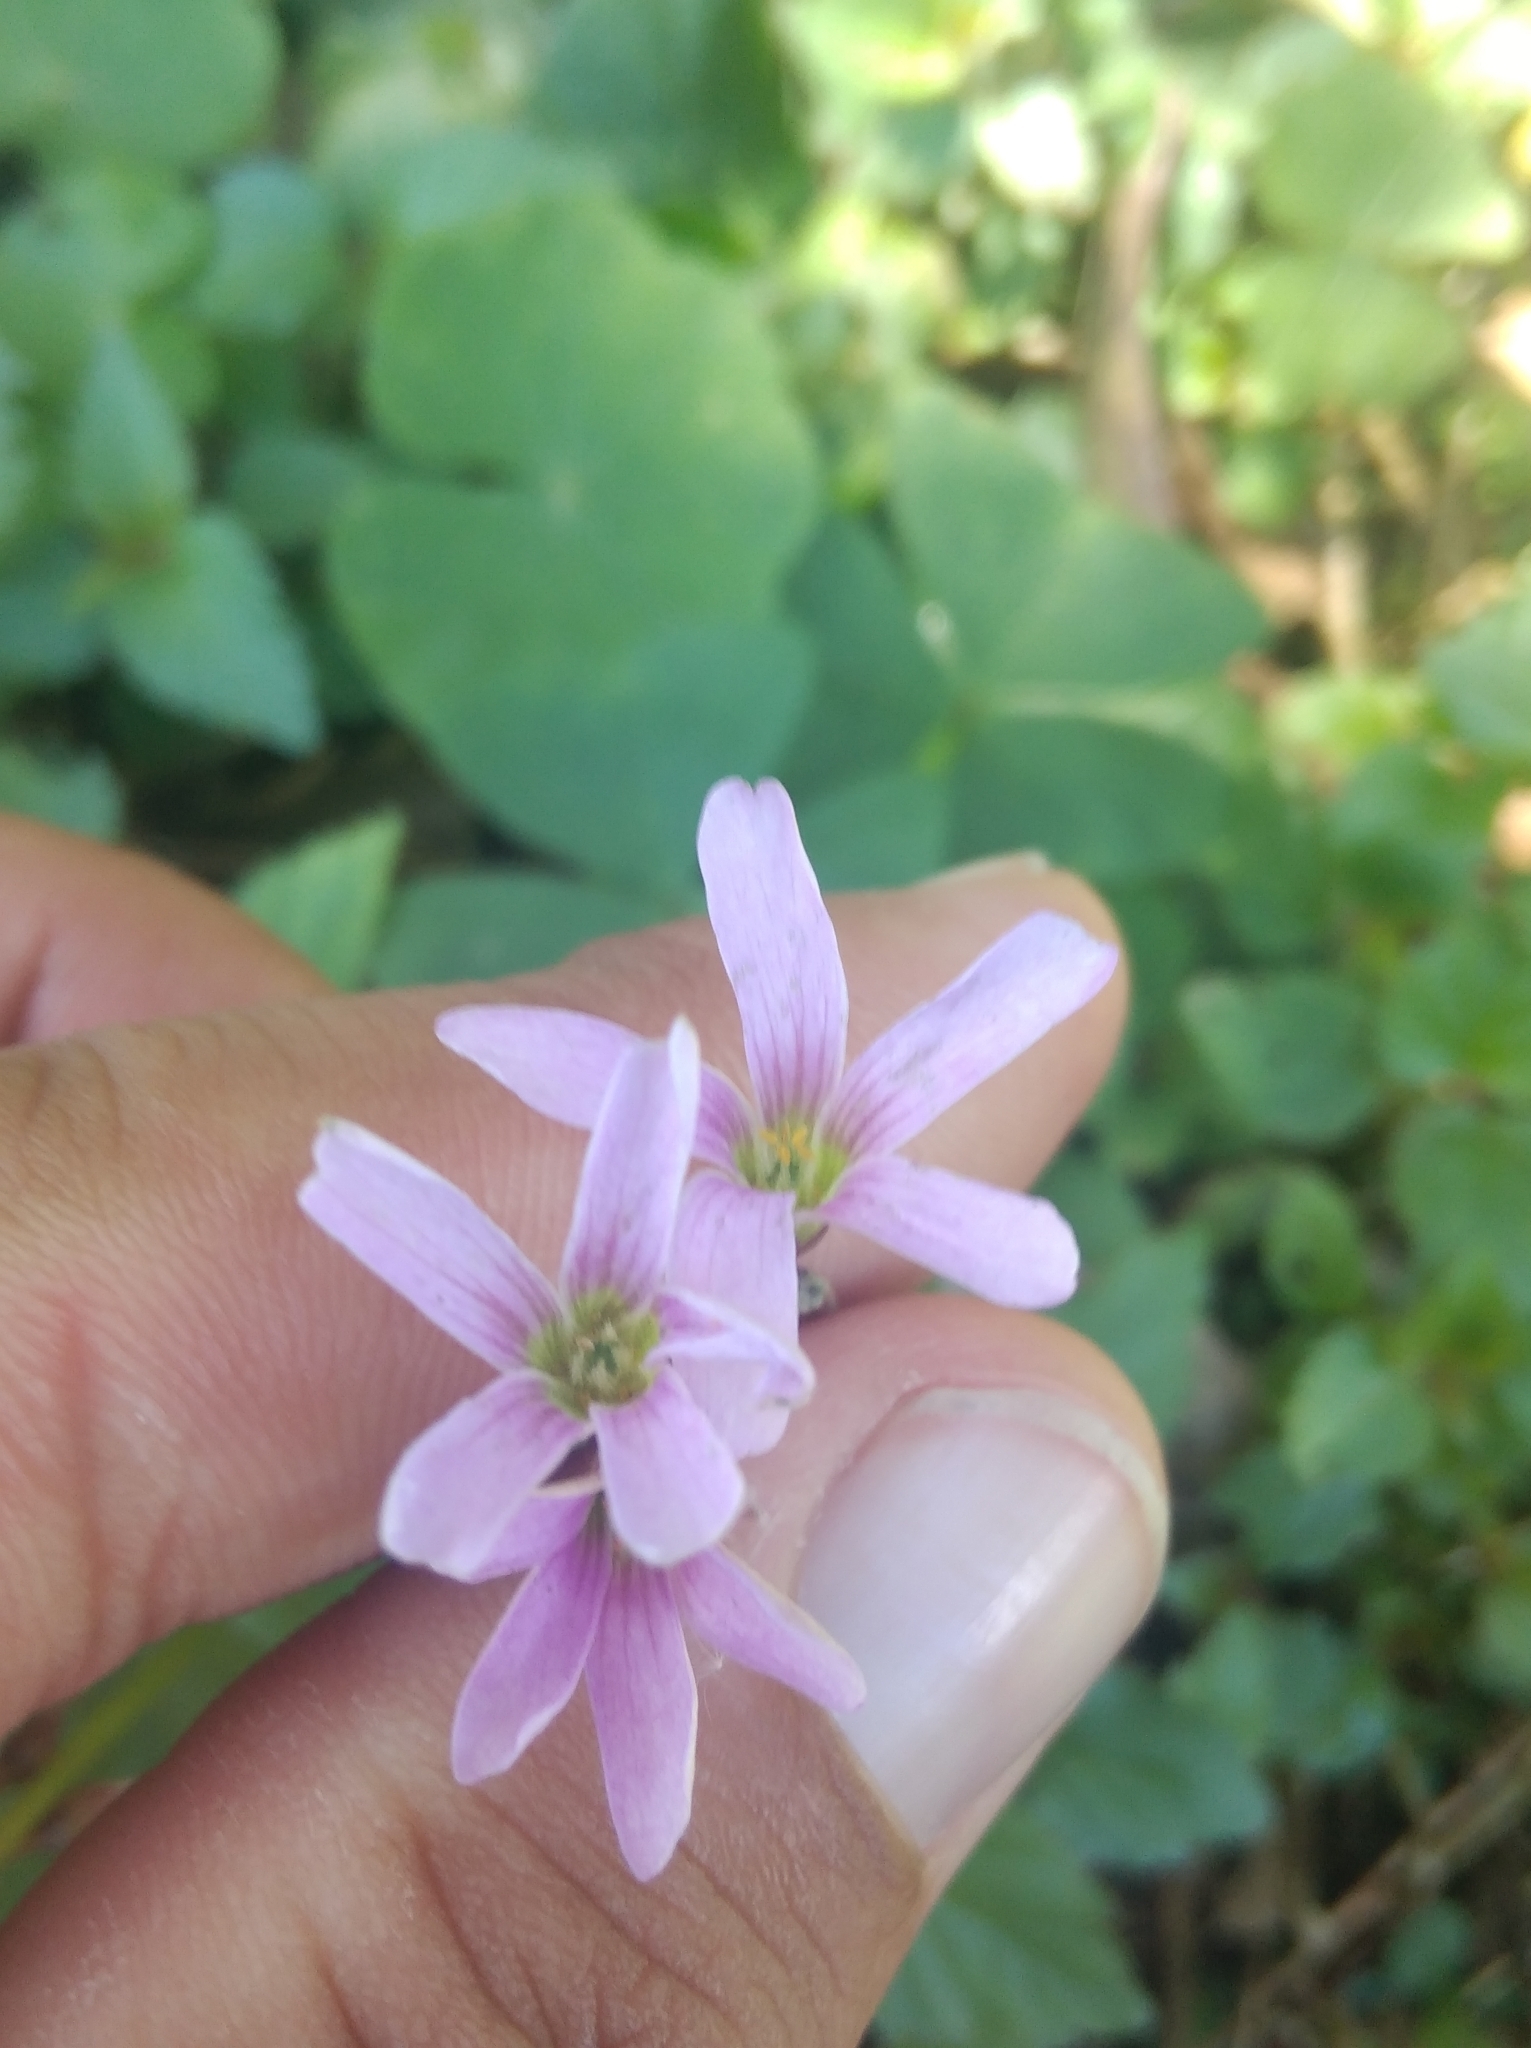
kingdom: Plantae
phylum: Tracheophyta
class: Magnoliopsida
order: Oxalidales
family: Oxalidaceae
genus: Oxalis
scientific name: Oxalis triangularis
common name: Wood sorrel
